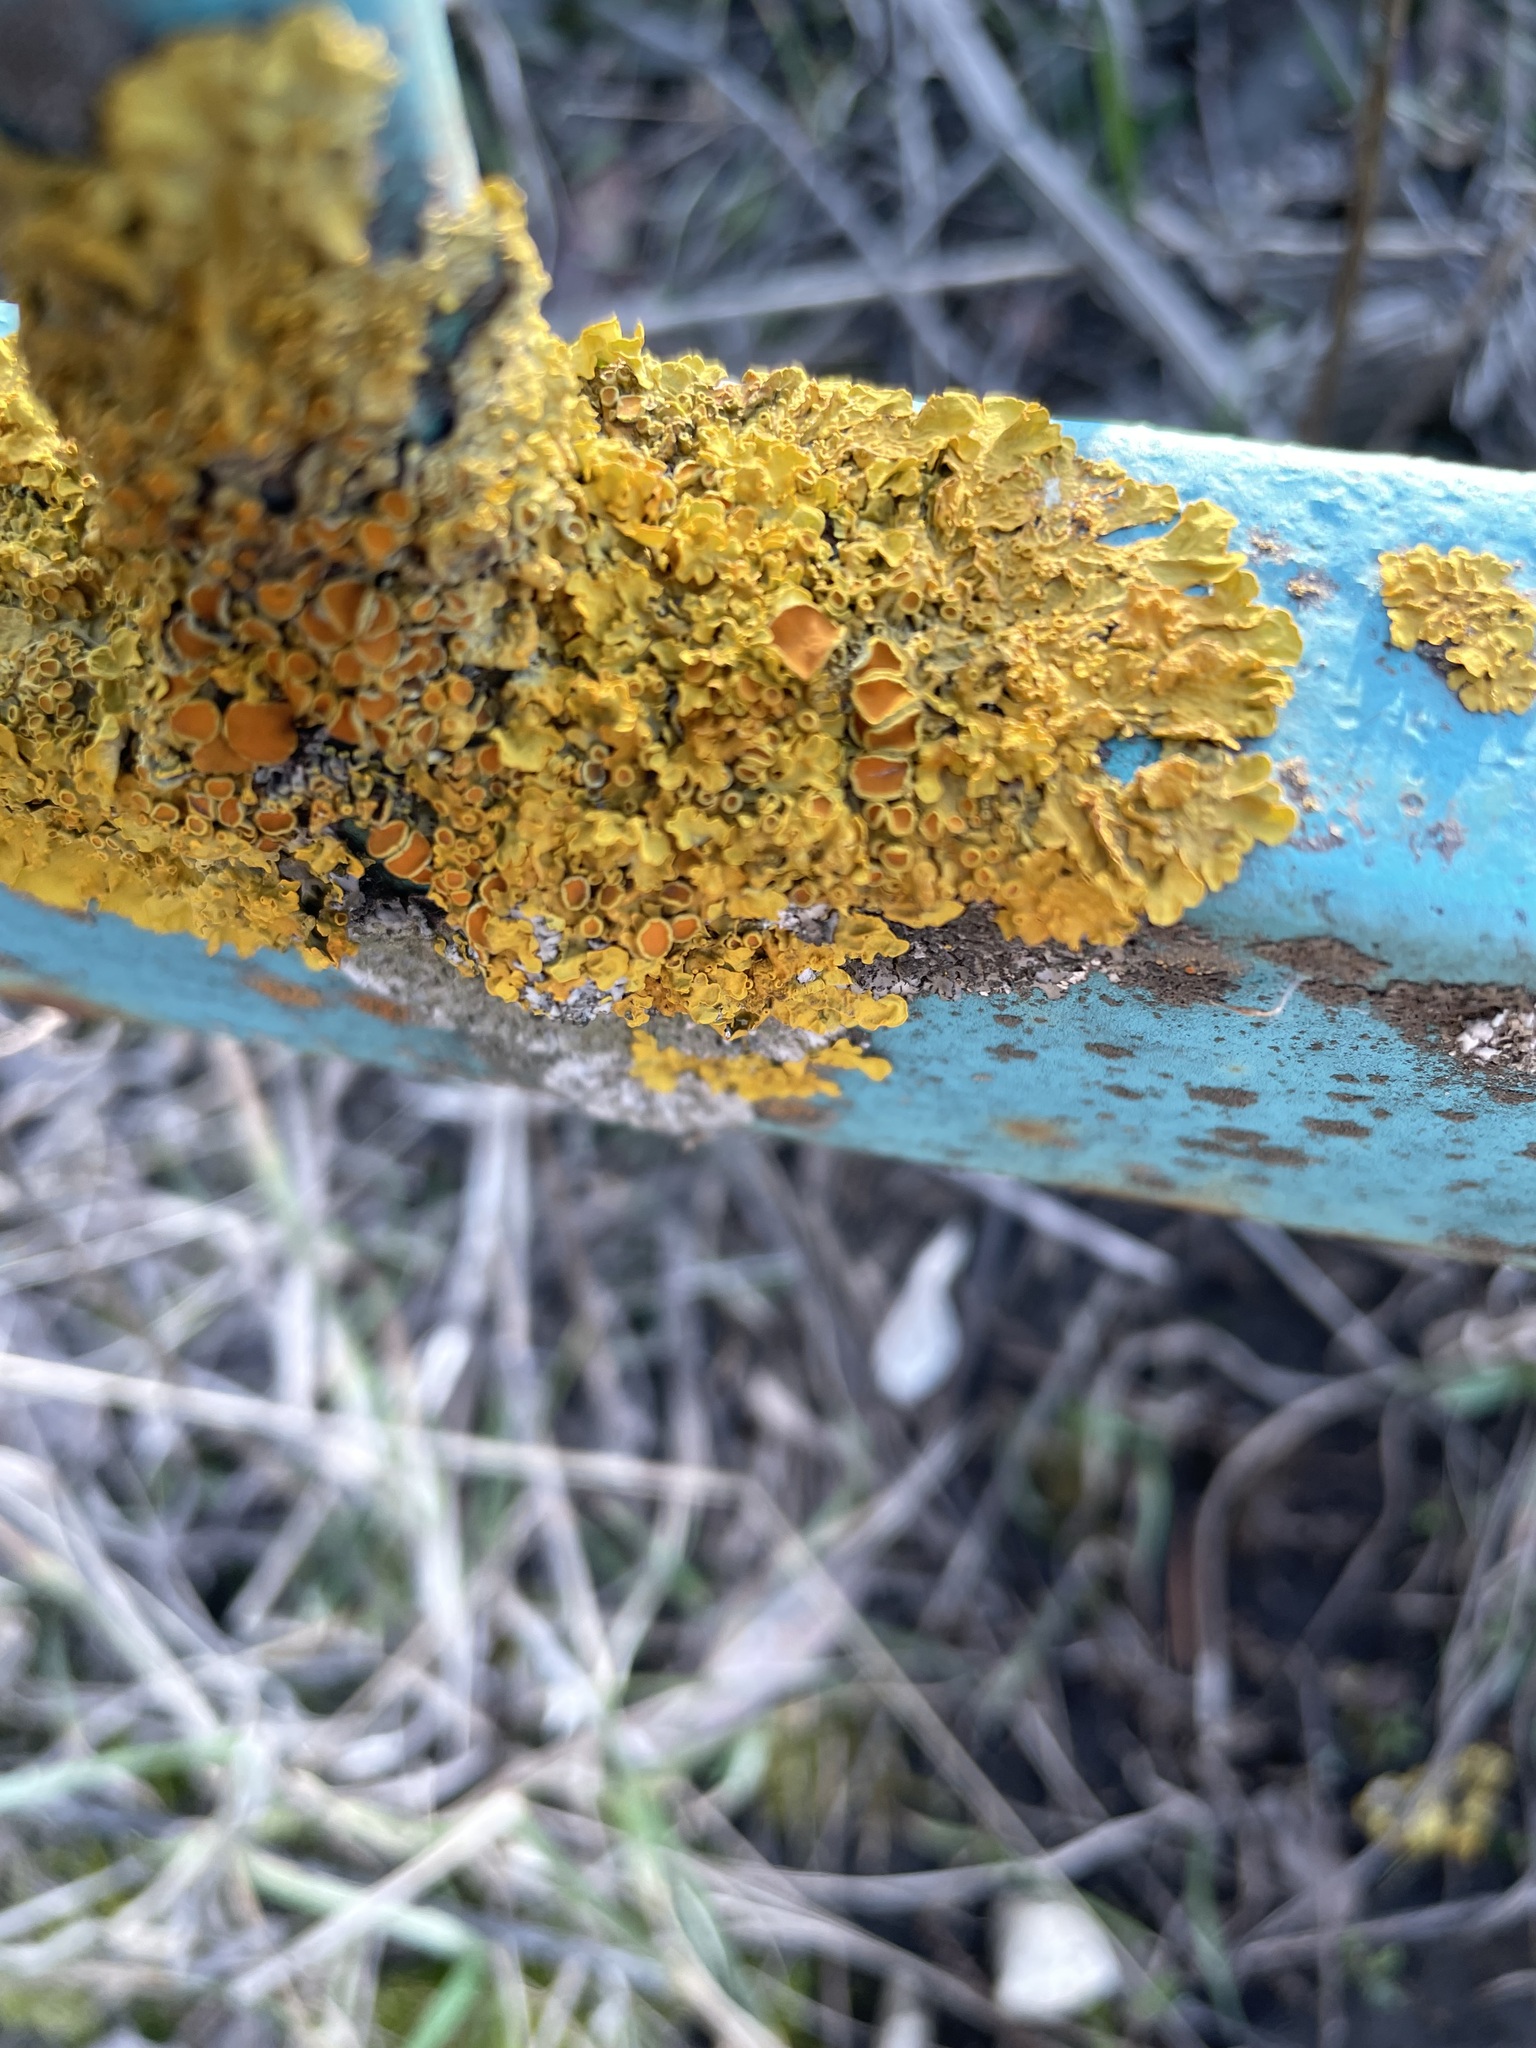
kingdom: Fungi
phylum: Ascomycota
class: Lecanoromycetes
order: Teloschistales
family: Teloschistaceae
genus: Xanthoria
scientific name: Xanthoria parietina
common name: Common orange lichen
